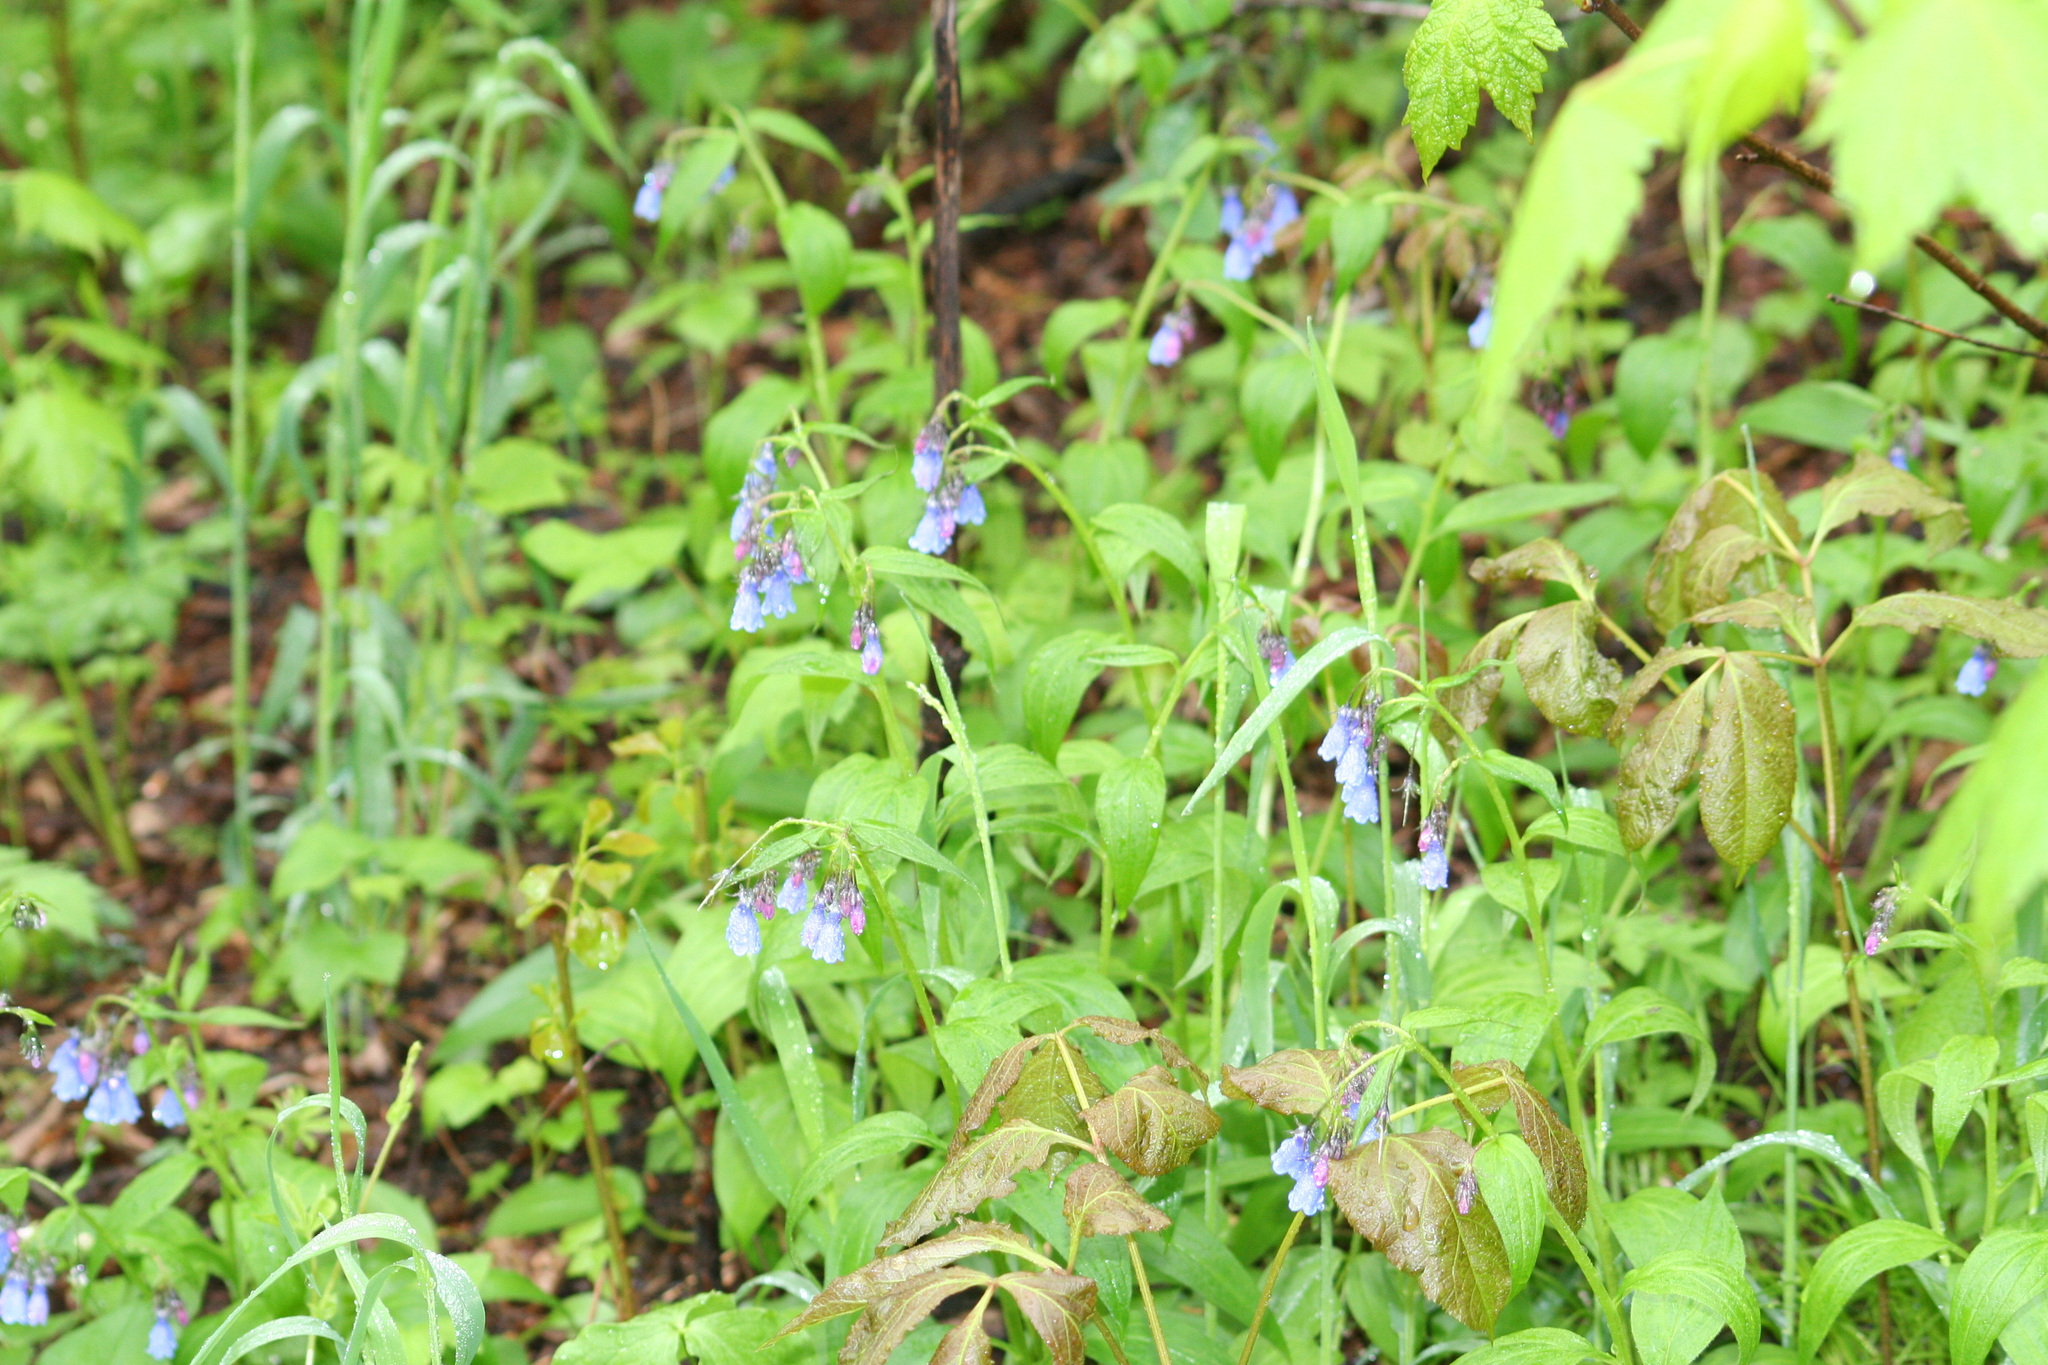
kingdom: Plantae
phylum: Tracheophyta
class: Magnoliopsida
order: Boraginales
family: Boraginaceae
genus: Mertensia
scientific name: Mertensia paniculata
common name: Panicled bluebells
